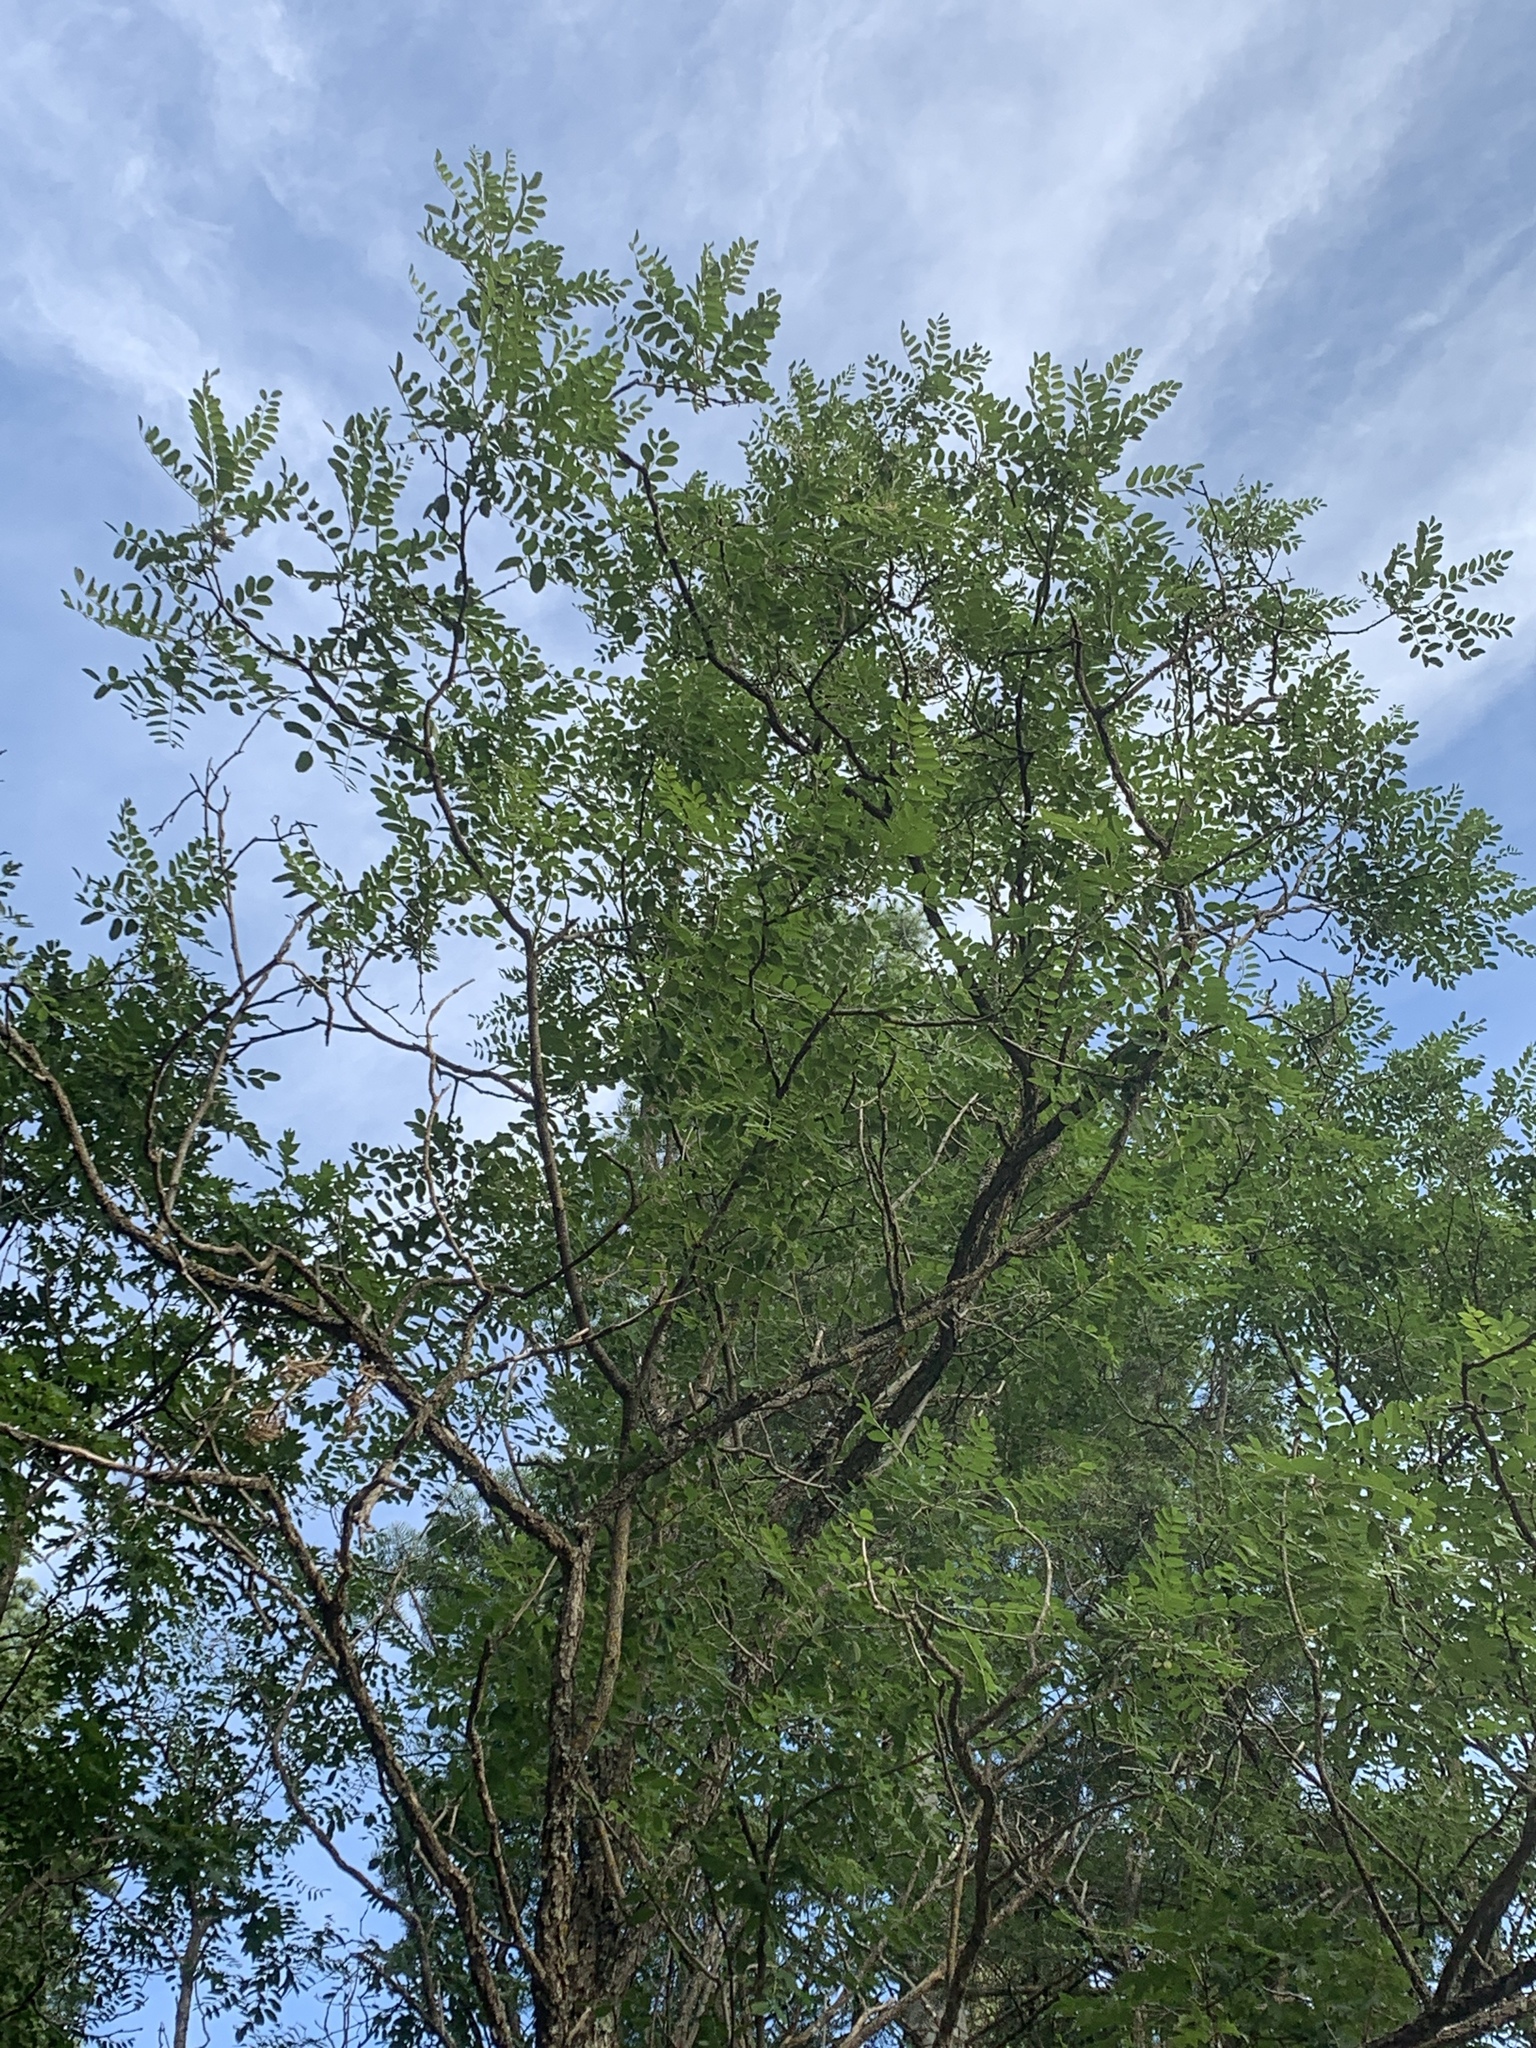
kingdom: Plantae
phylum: Tracheophyta
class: Magnoliopsida
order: Fabales
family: Fabaceae
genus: Robinia
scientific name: Robinia neomexicana
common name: New mexico locust
